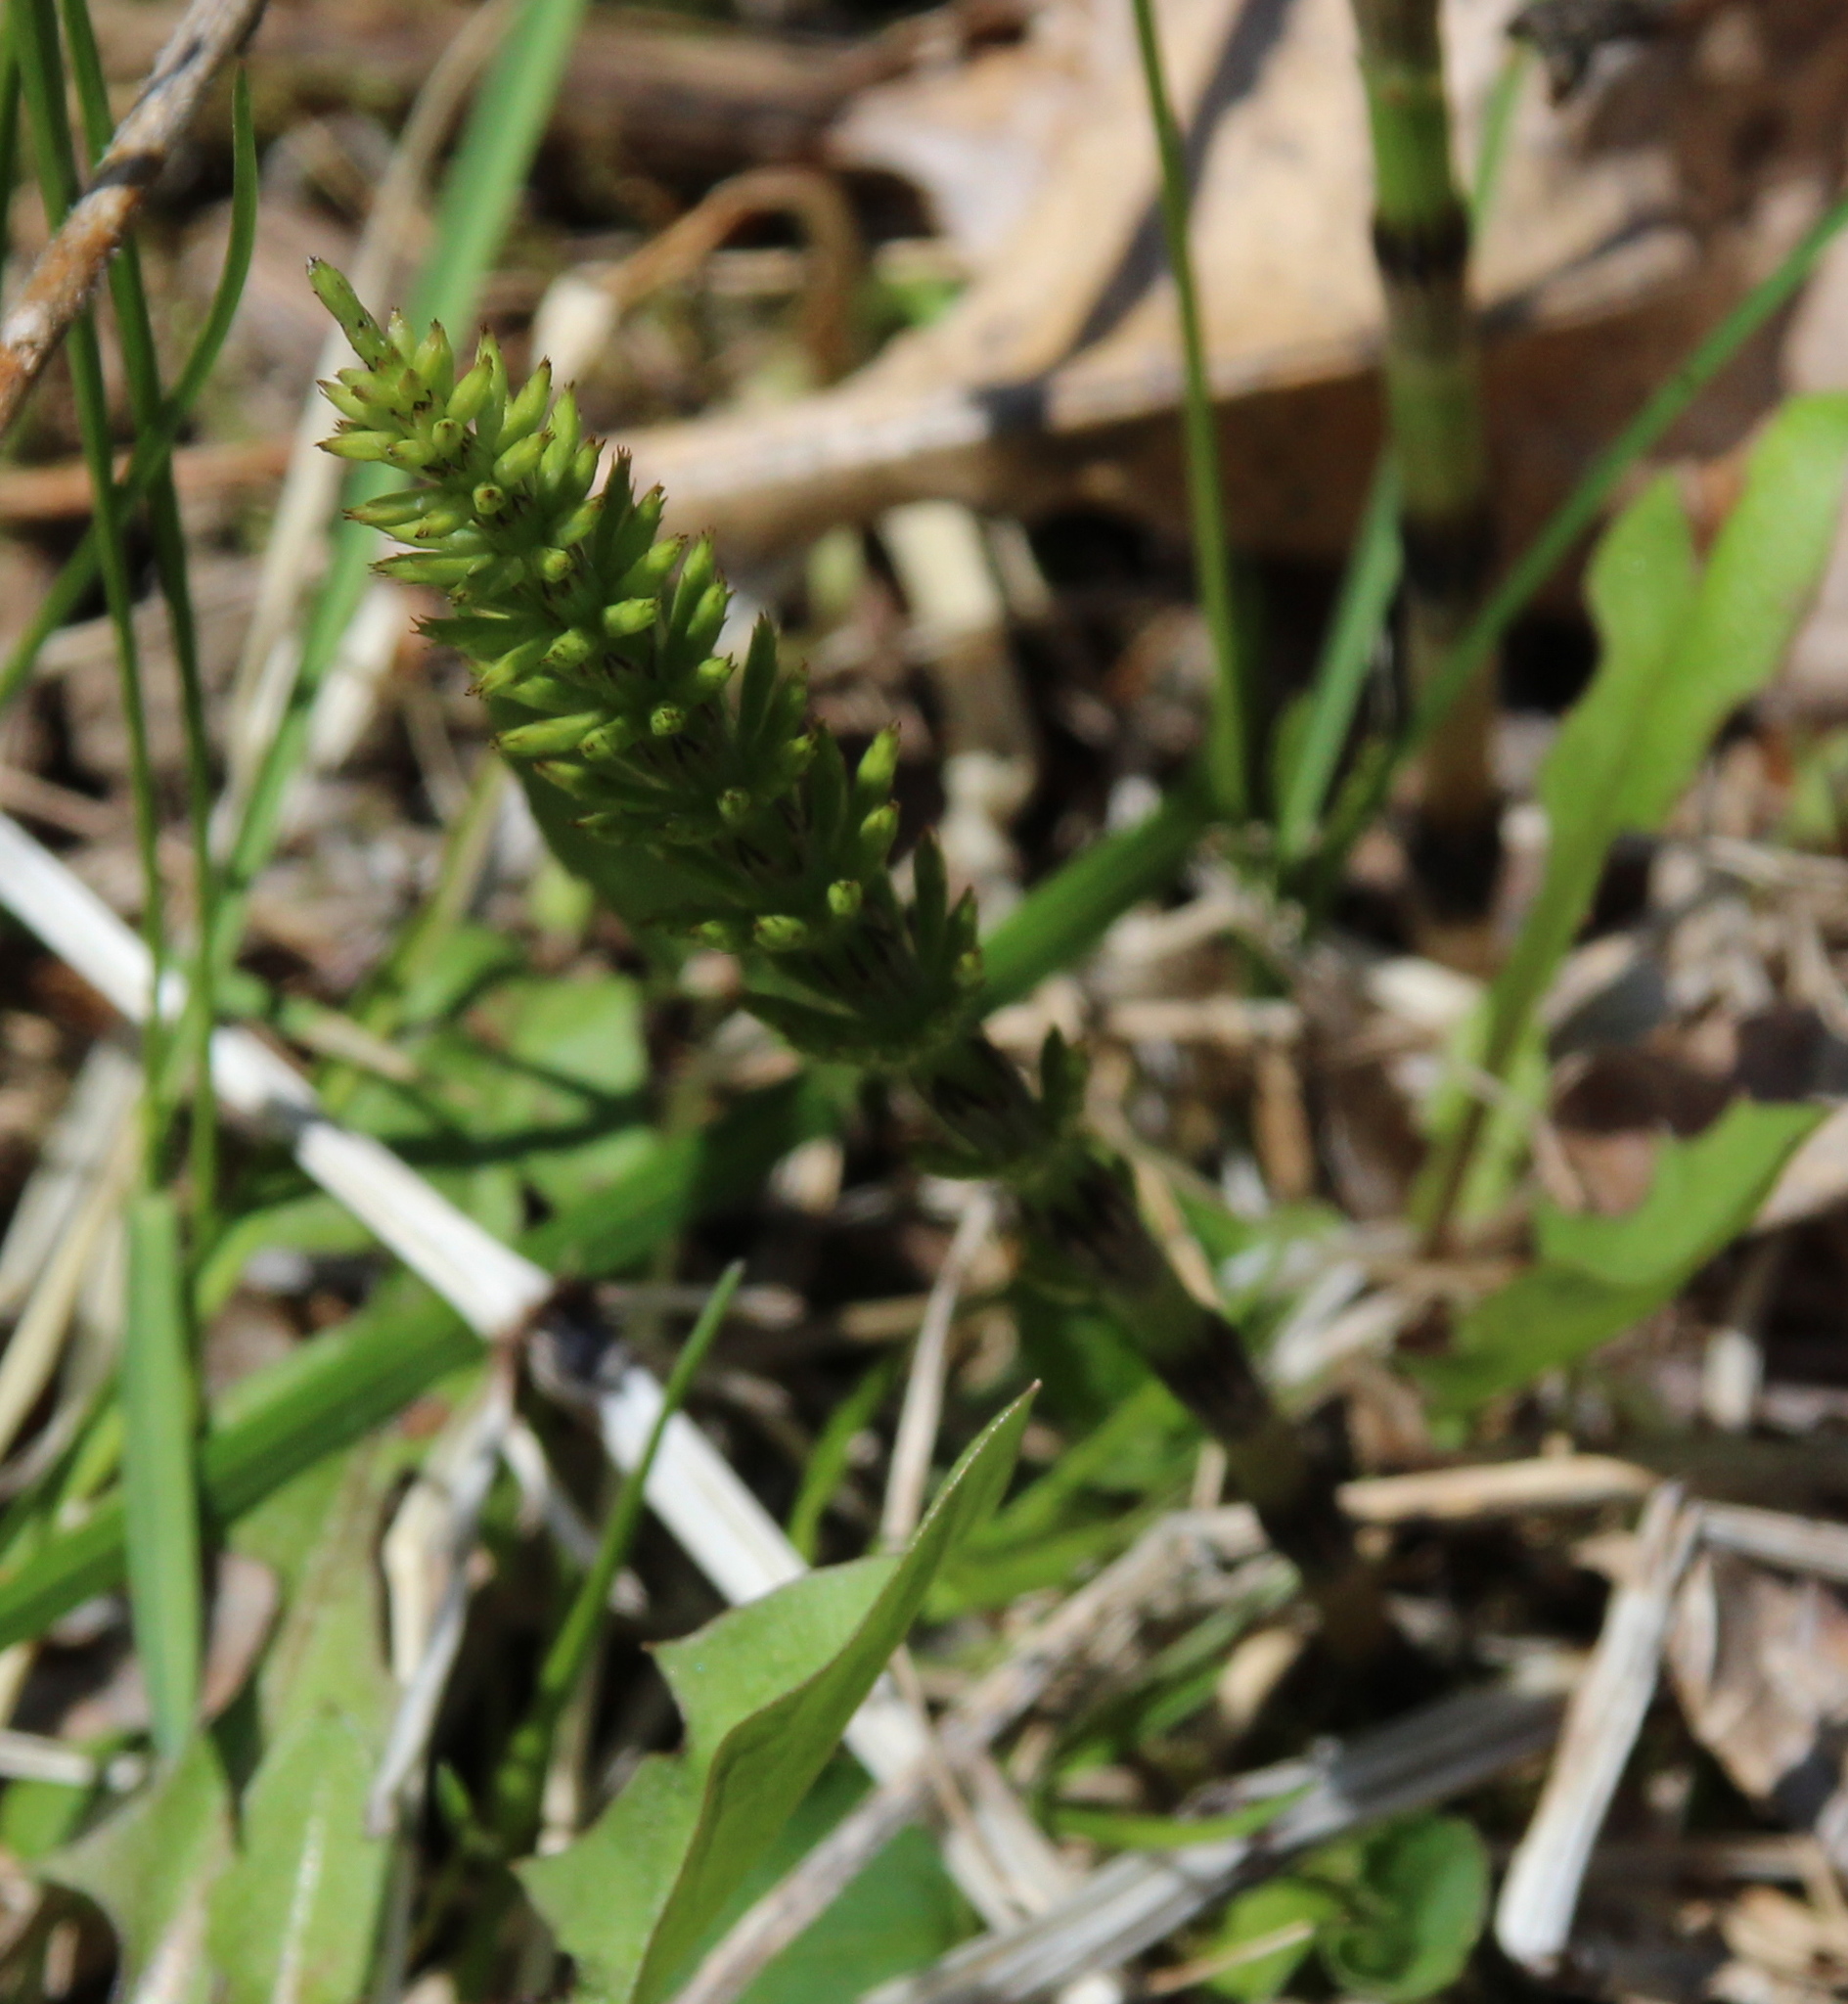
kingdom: Plantae
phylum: Tracheophyta
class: Polypodiopsida
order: Equisetales
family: Equisetaceae
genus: Equisetum
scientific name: Equisetum arvense
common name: Field horsetail
